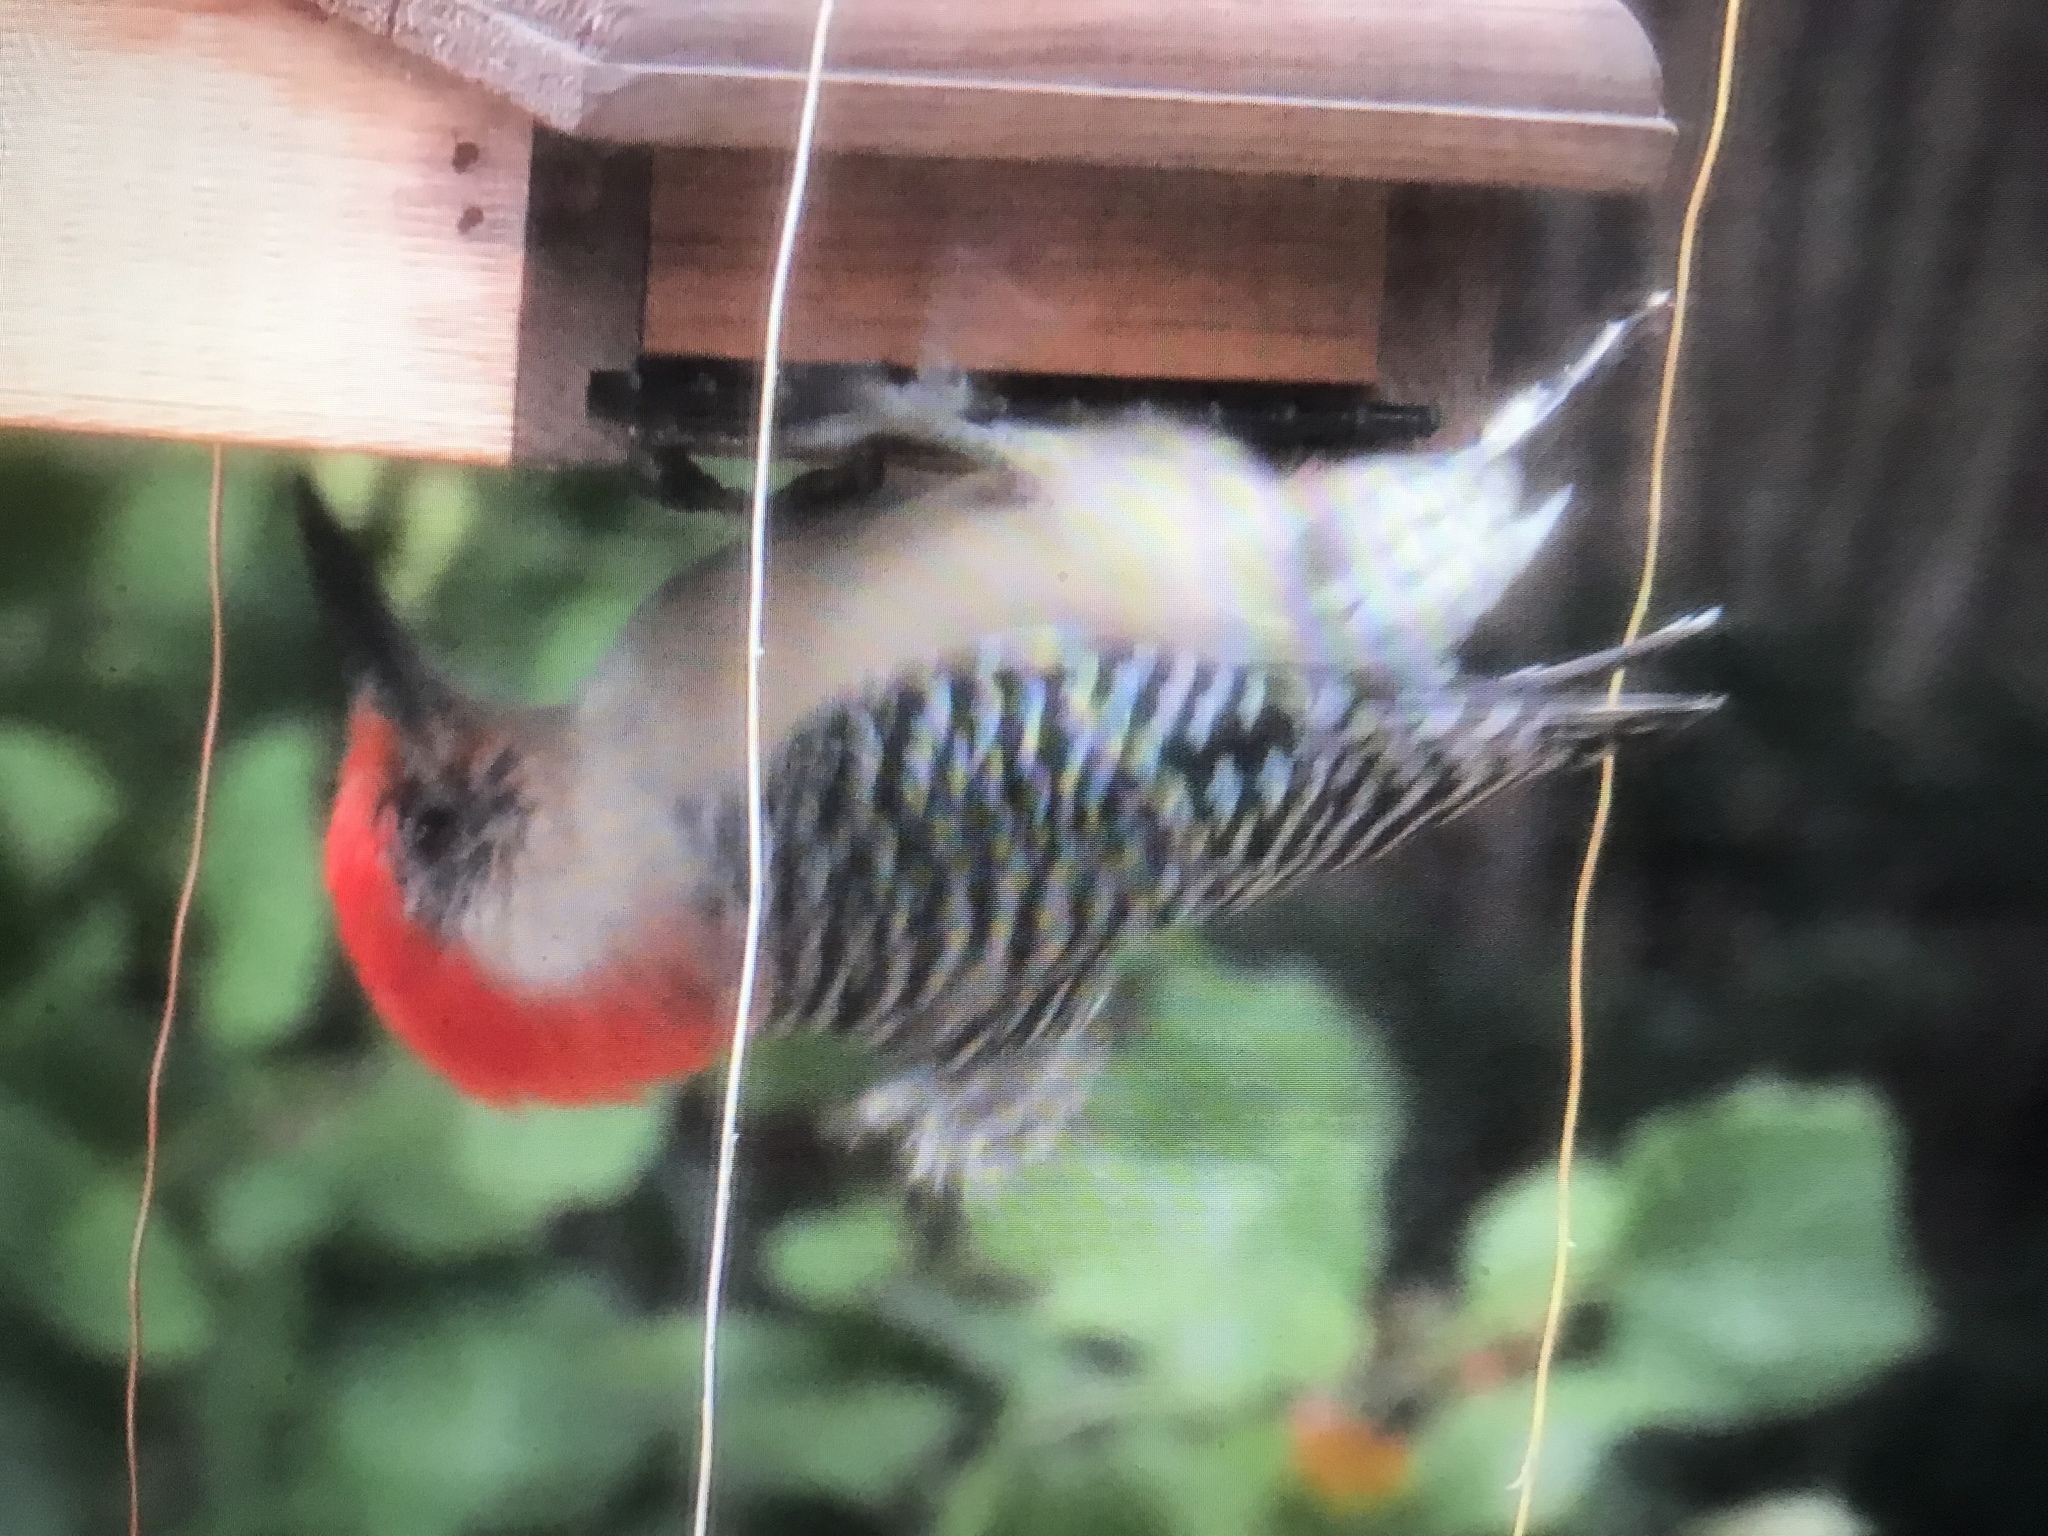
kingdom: Animalia
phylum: Chordata
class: Aves
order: Piciformes
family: Picidae
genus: Melanerpes
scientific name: Melanerpes carolinus
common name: Red-bellied woodpecker
